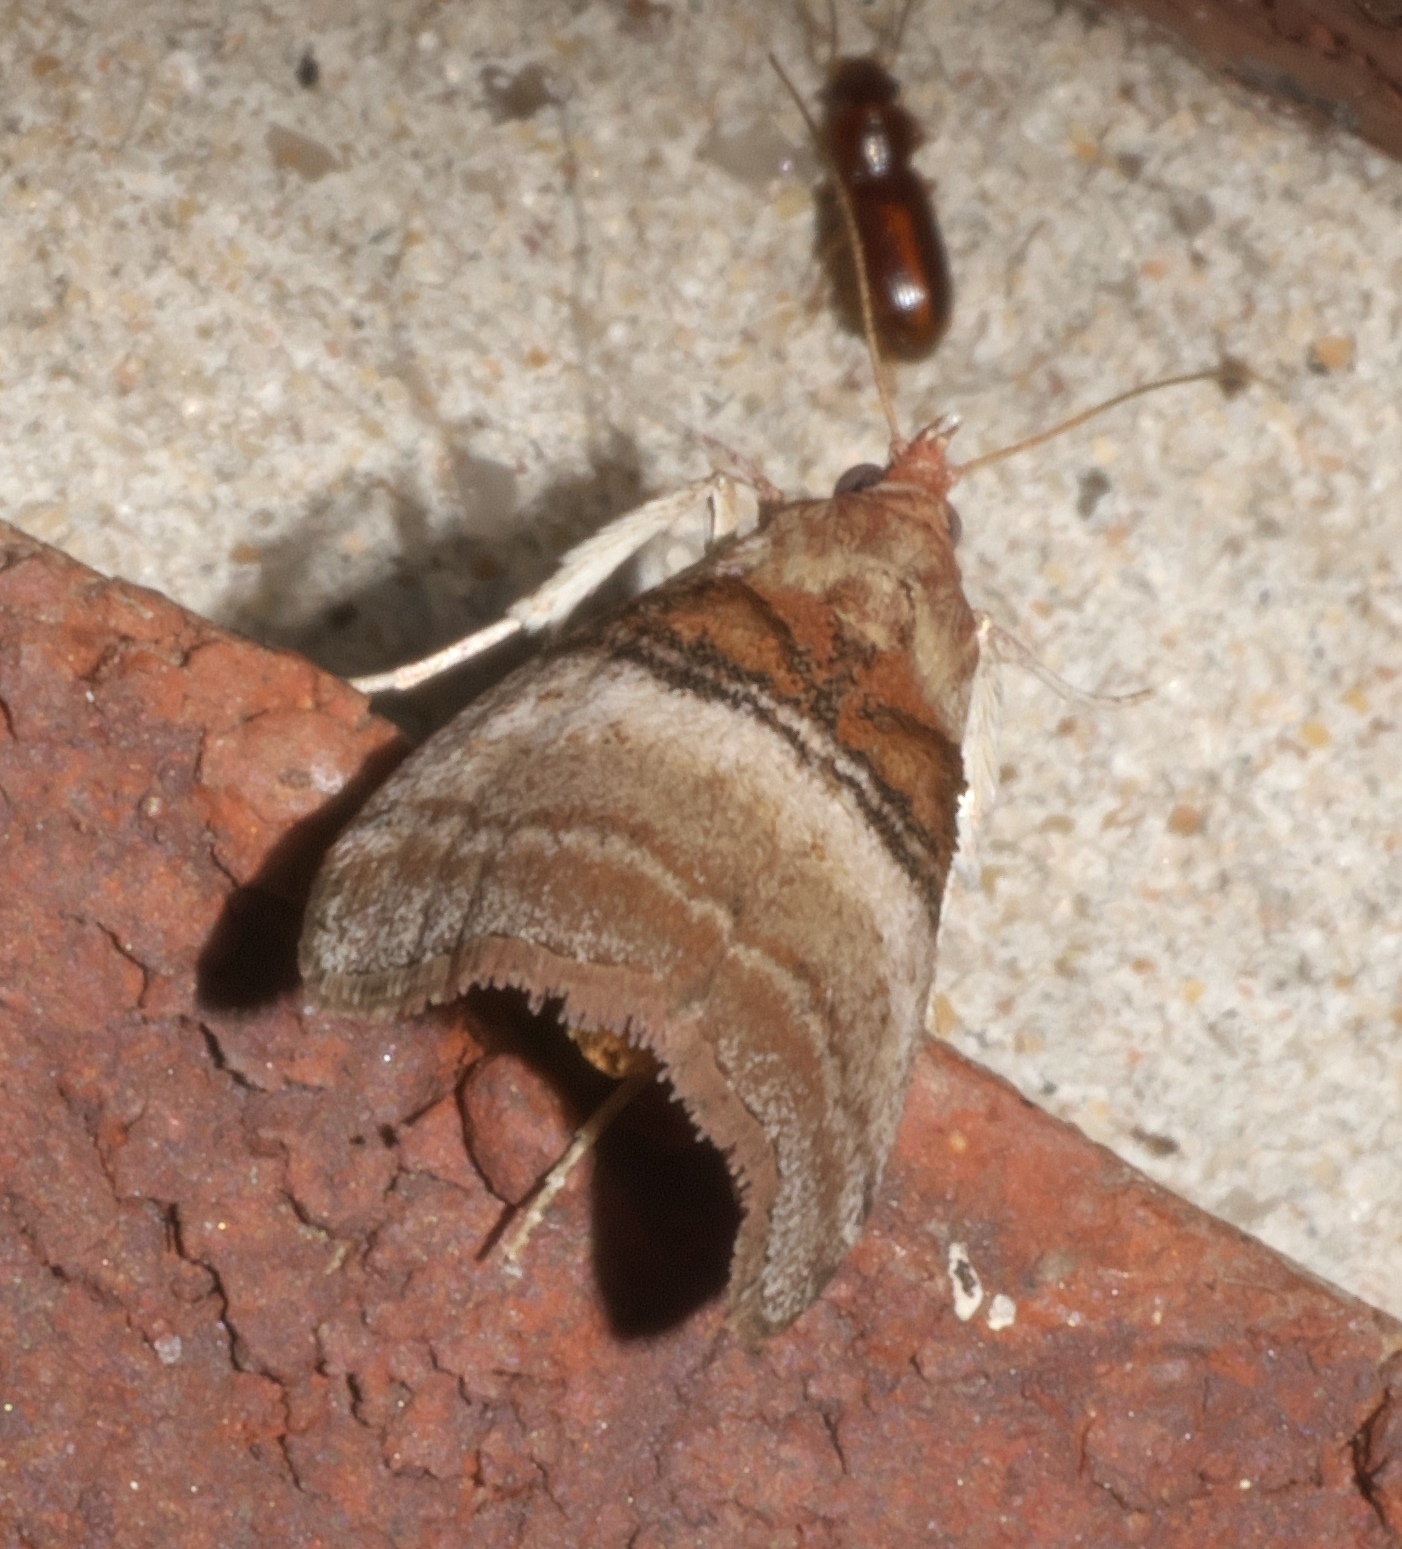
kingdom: Animalia
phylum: Arthropoda
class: Insecta
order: Lepidoptera
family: Pyralidae
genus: Pococera
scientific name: Pococera militella
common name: Sycamore webworm moth
